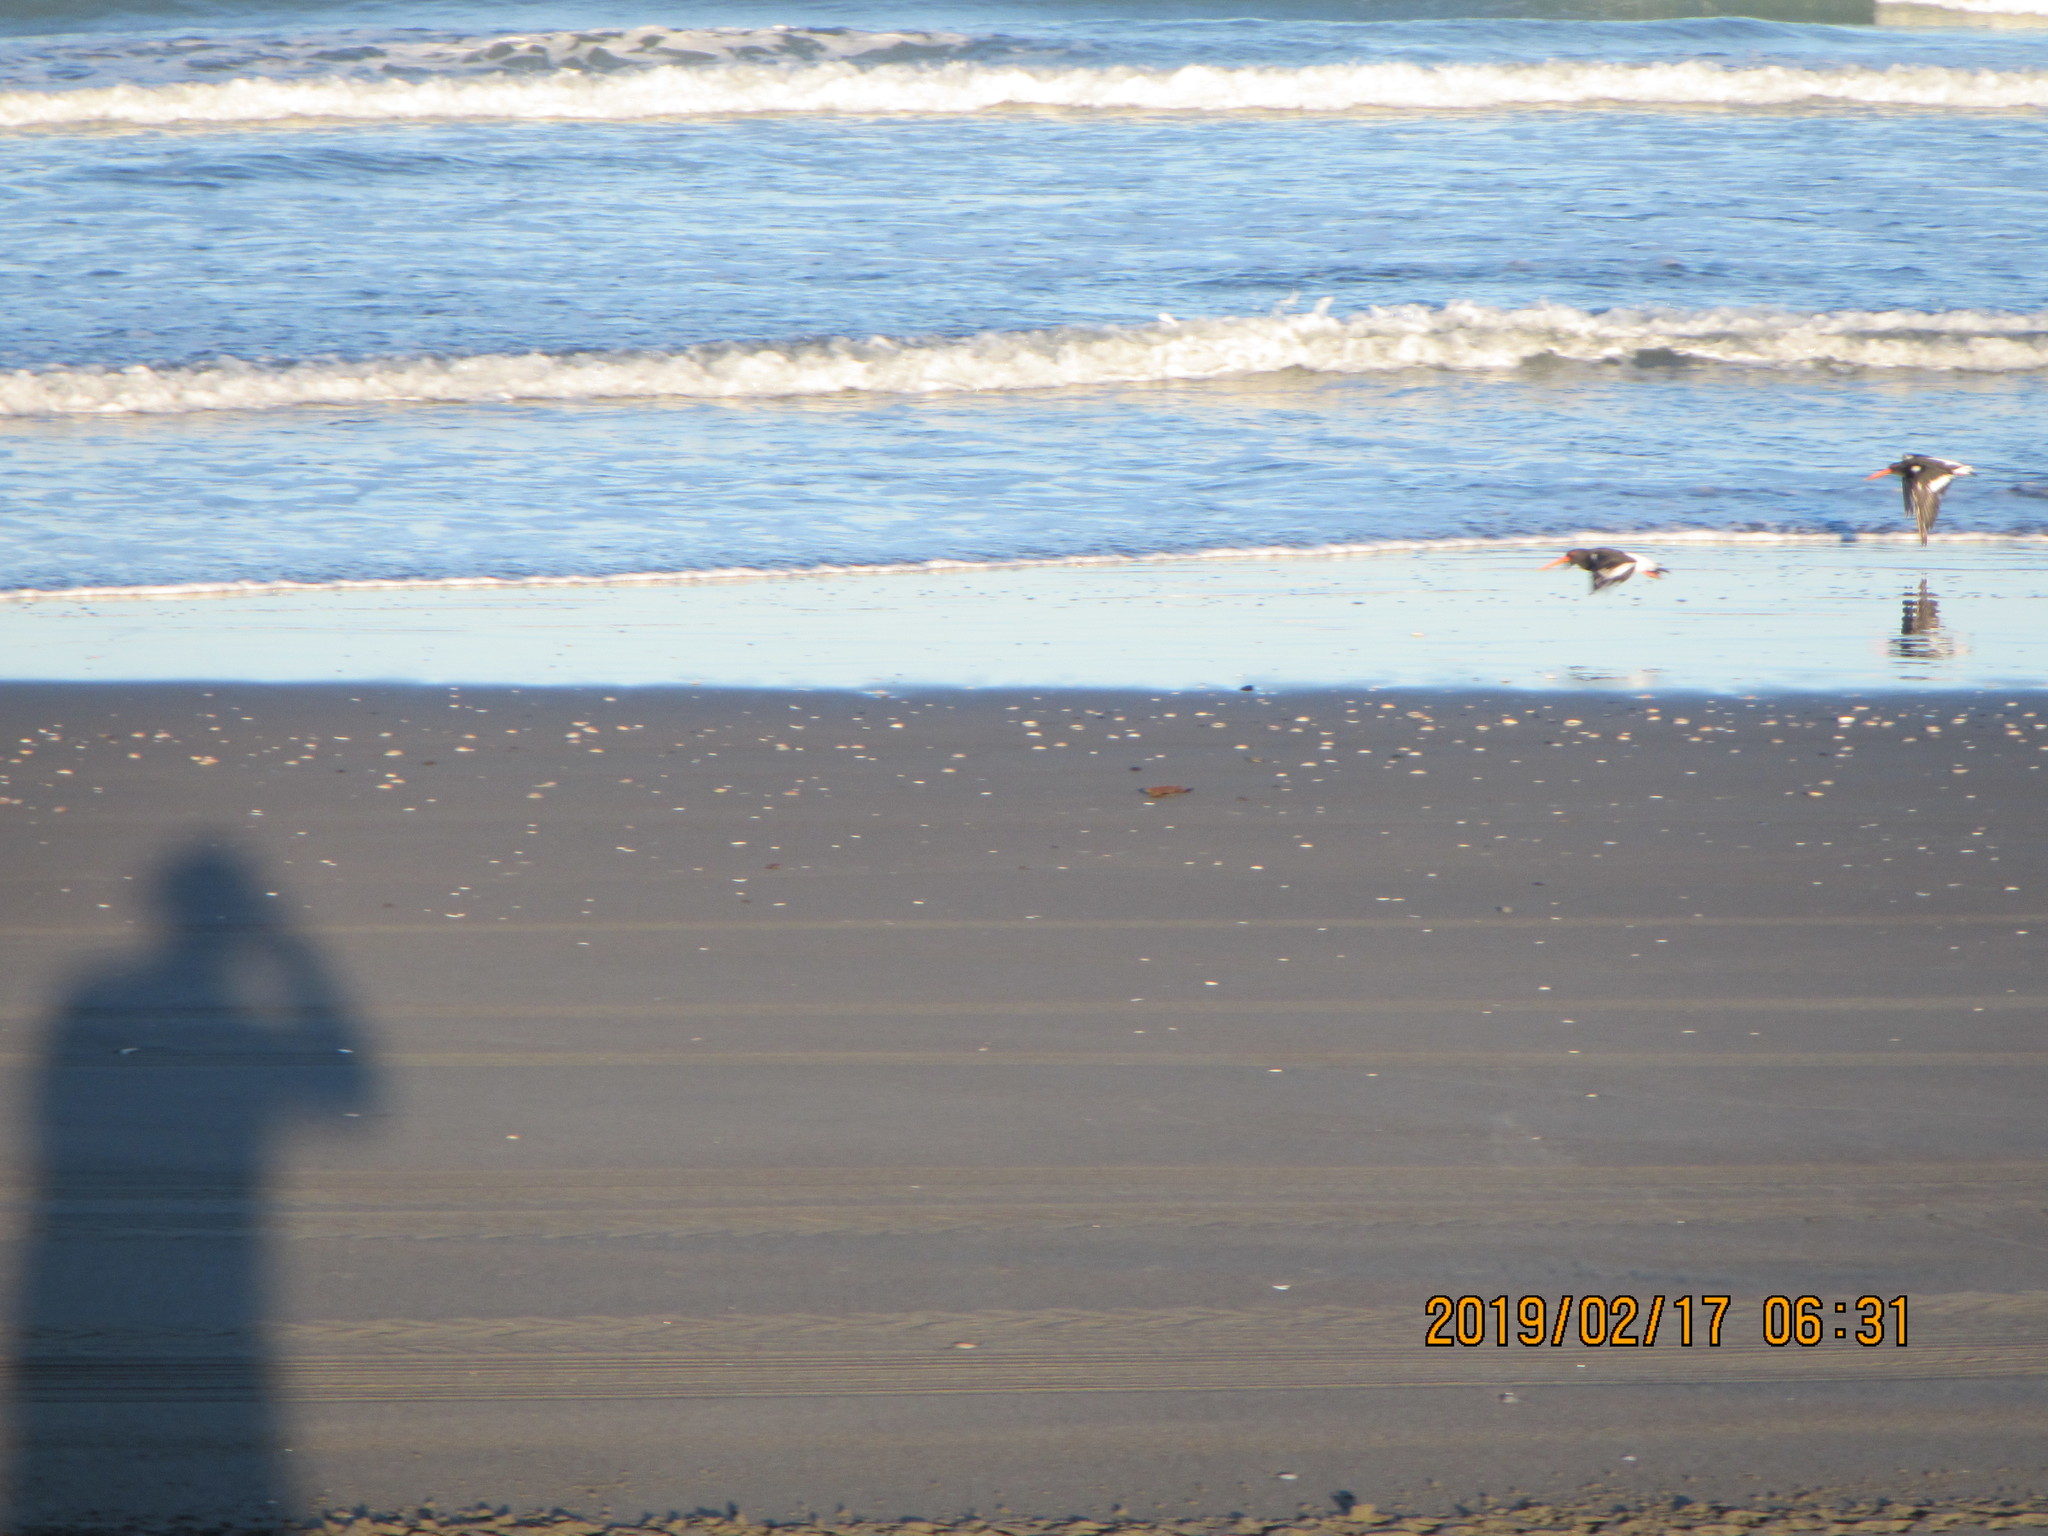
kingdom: Animalia
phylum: Chordata
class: Aves
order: Charadriiformes
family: Haematopodidae
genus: Haematopus
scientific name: Haematopus finschi
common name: South island oystercatcher
